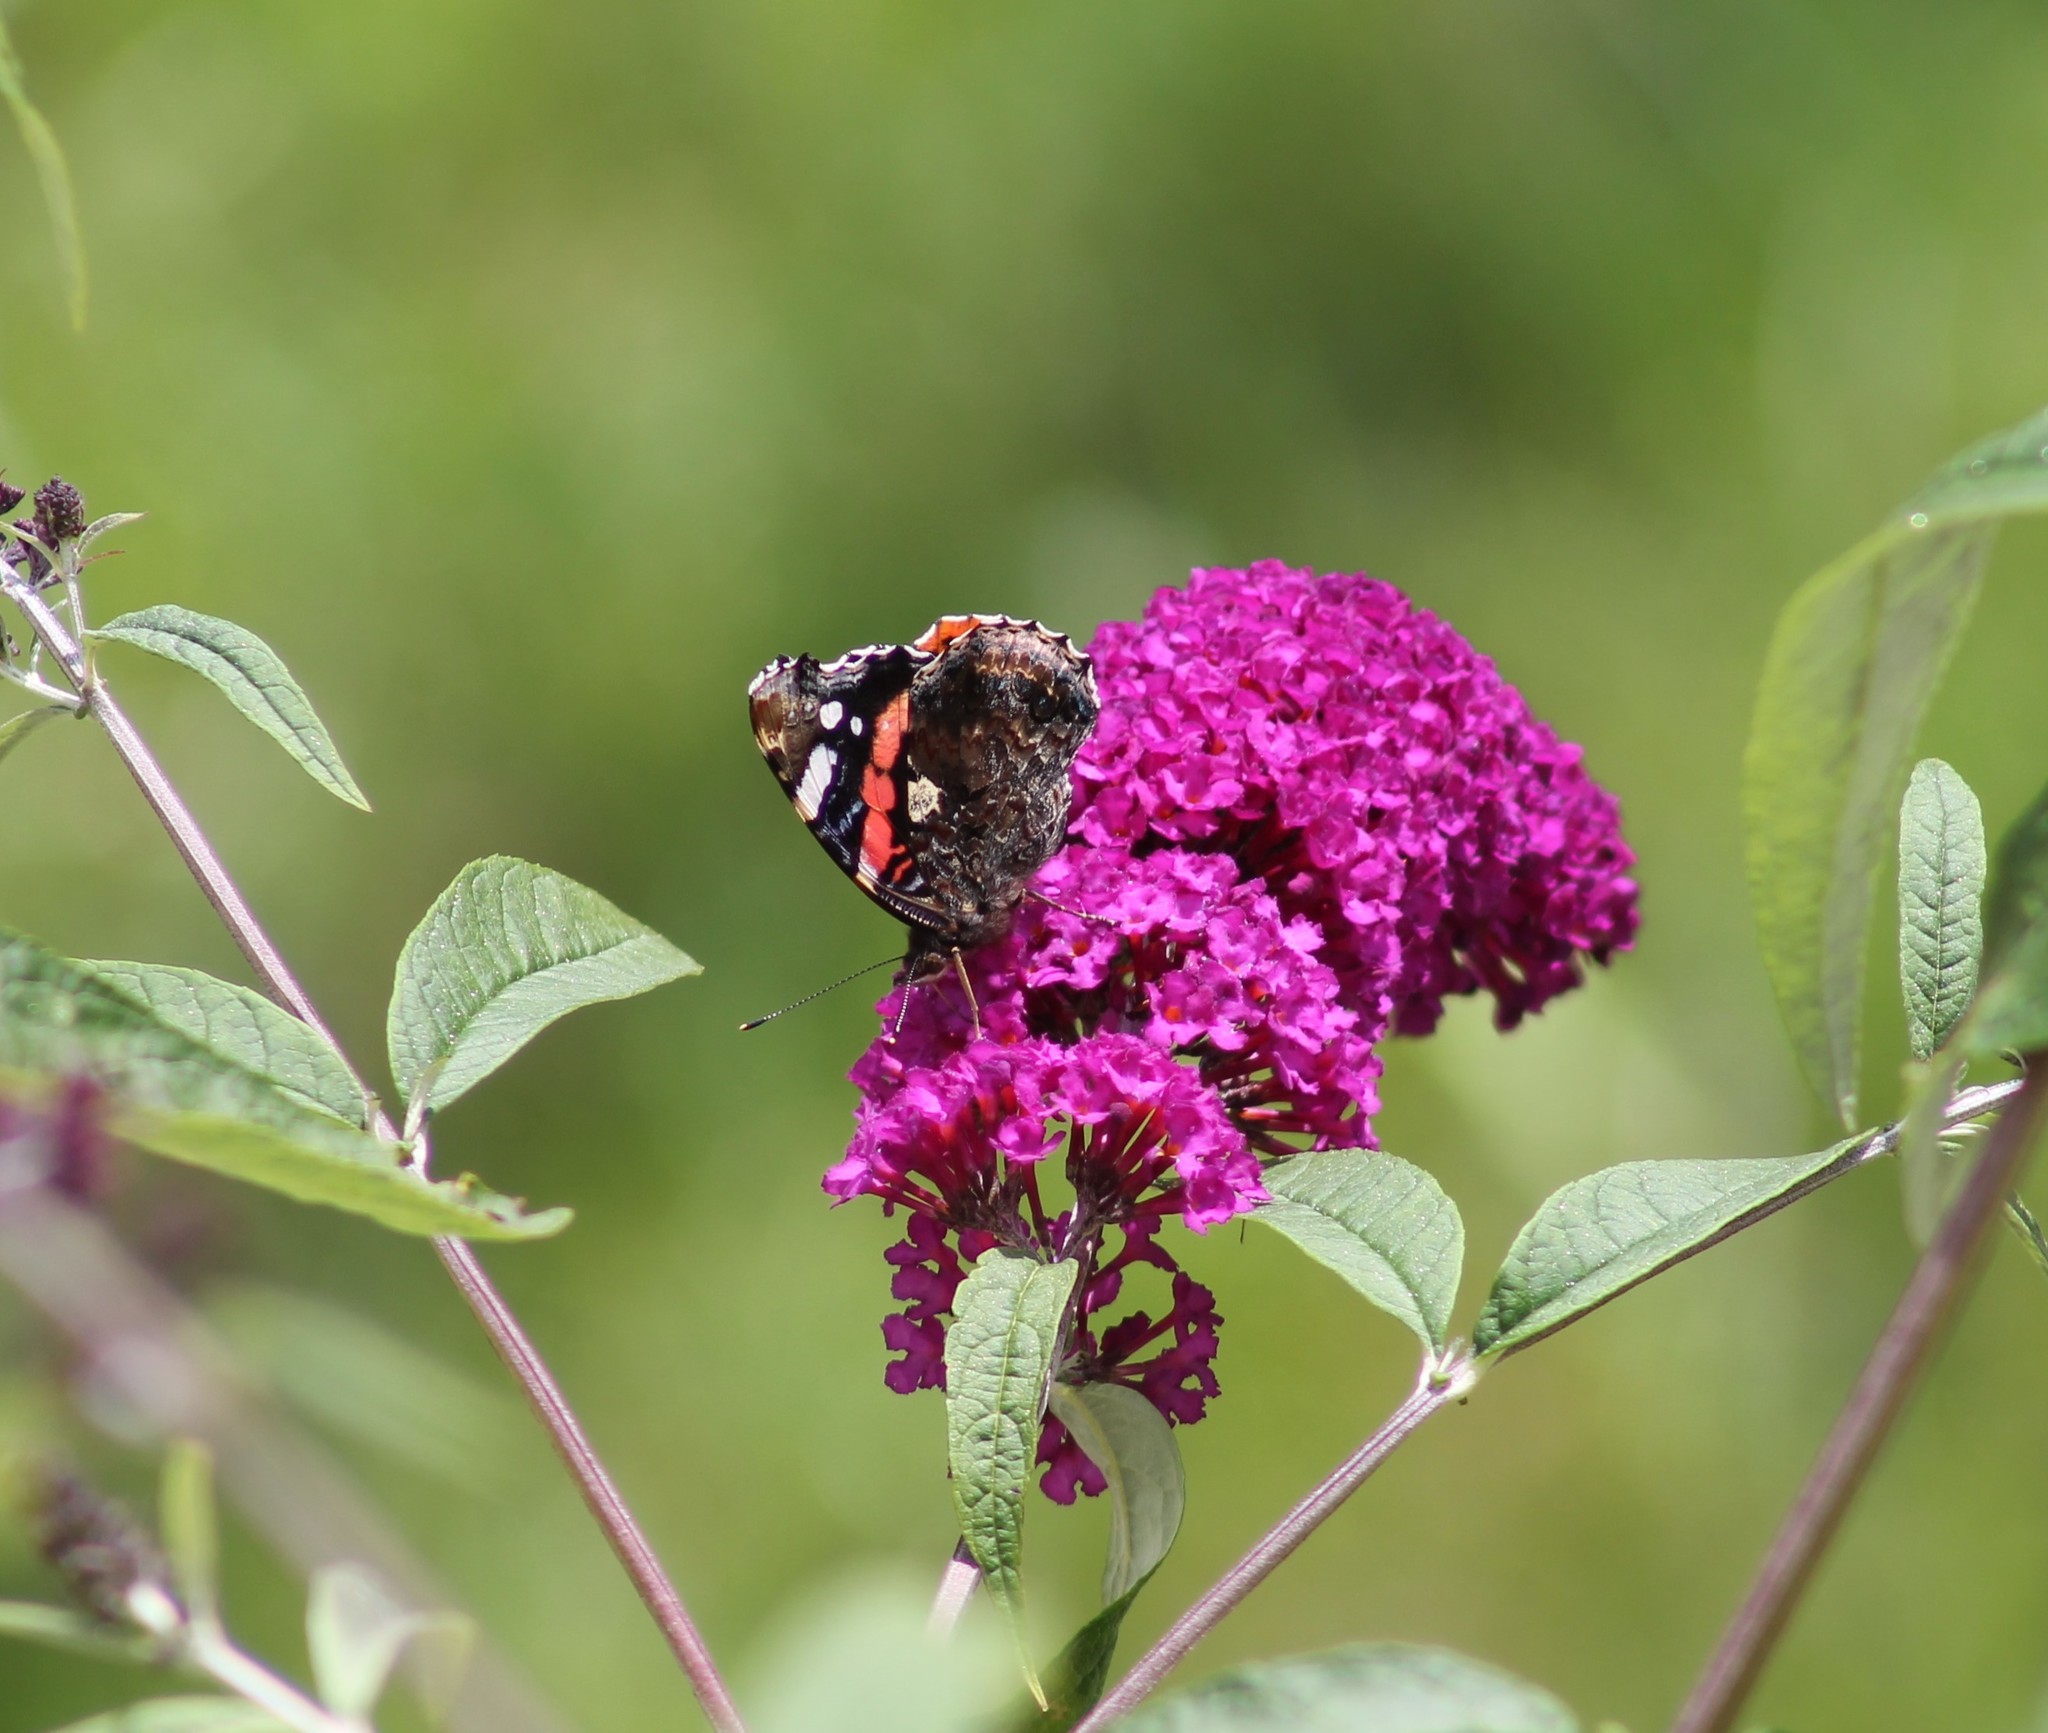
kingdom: Animalia
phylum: Arthropoda
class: Insecta
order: Lepidoptera
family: Nymphalidae
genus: Vanessa
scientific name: Vanessa atalanta
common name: Red admiral
